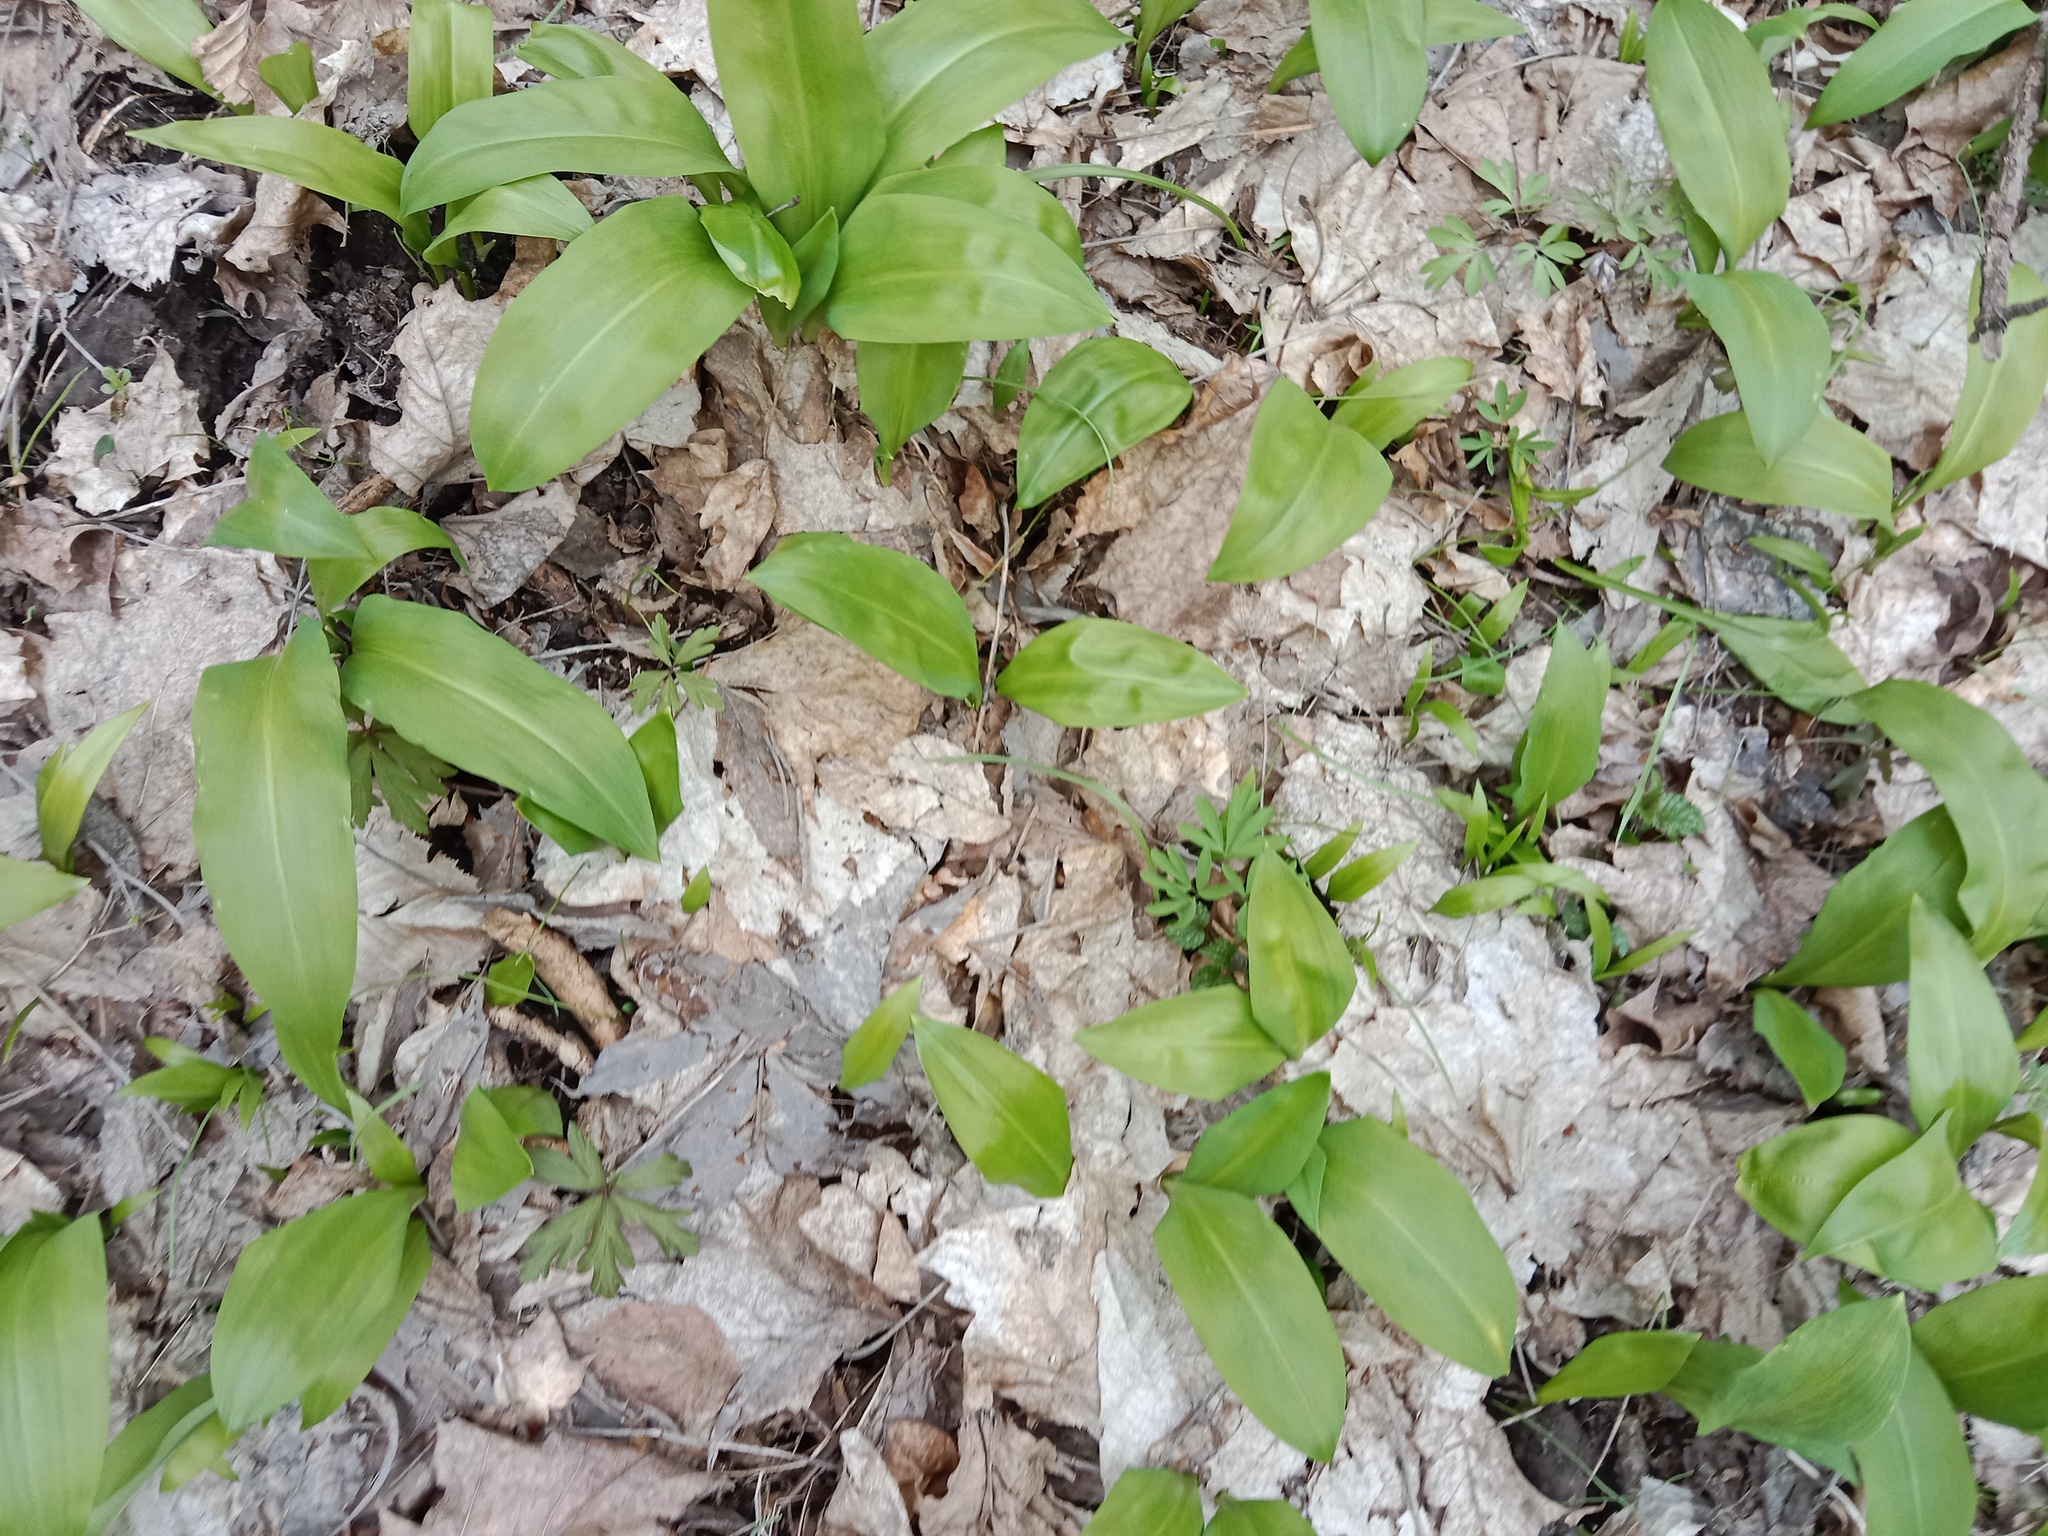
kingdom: Plantae
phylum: Tracheophyta
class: Liliopsida
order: Asparagales
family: Amaryllidaceae
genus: Allium
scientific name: Allium ursinum
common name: Ramsons
